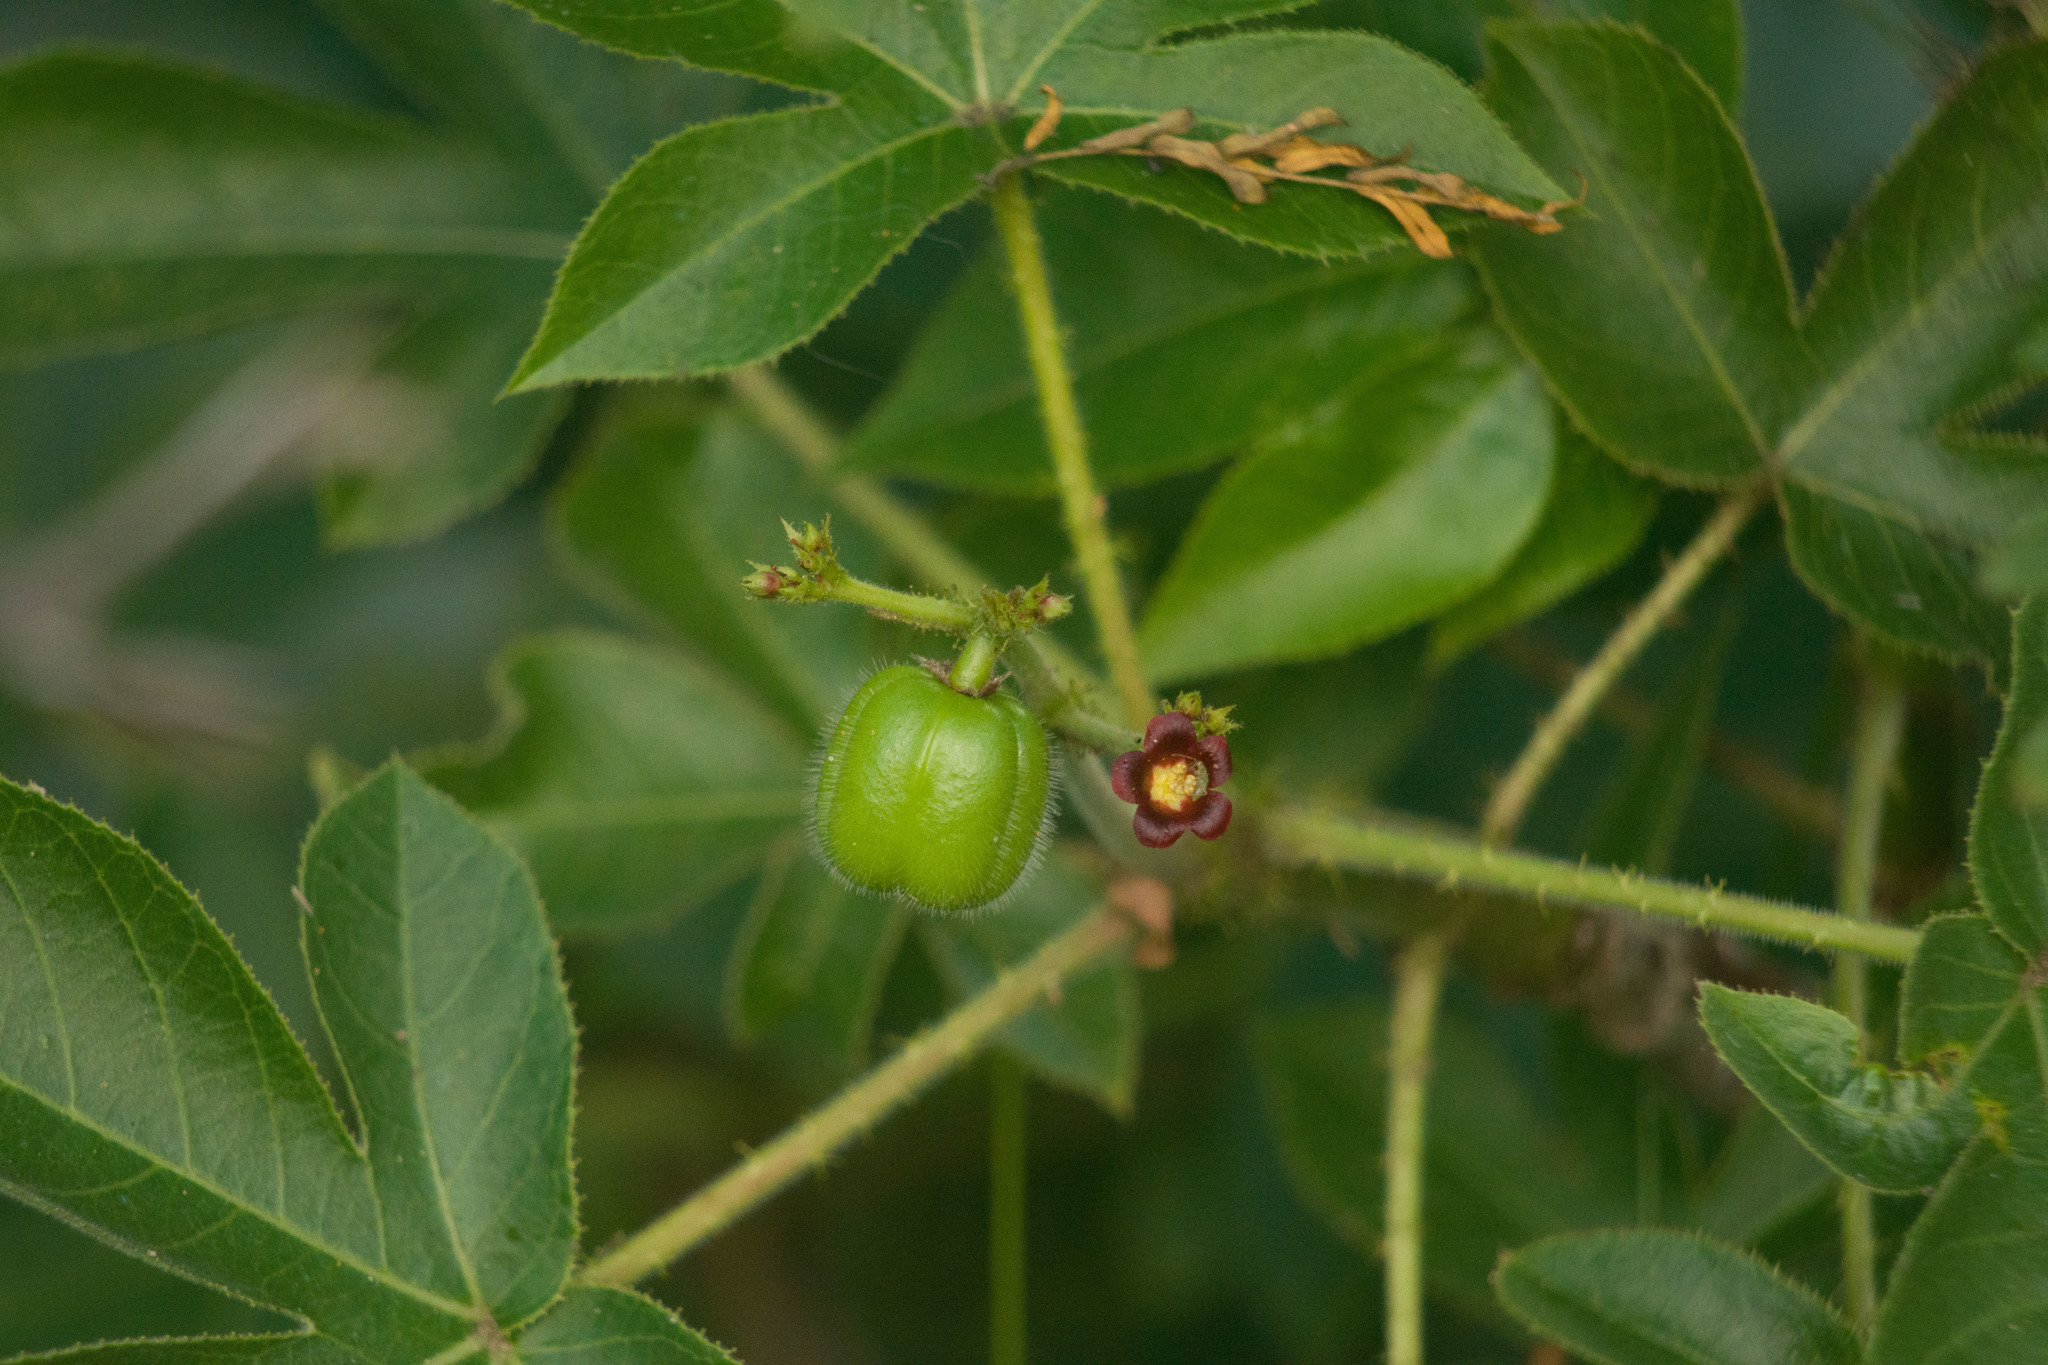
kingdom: Plantae
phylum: Tracheophyta
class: Magnoliopsida
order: Malpighiales
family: Euphorbiaceae
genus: Jatropha
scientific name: Jatropha gossypiifolia
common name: Bellyache bush
